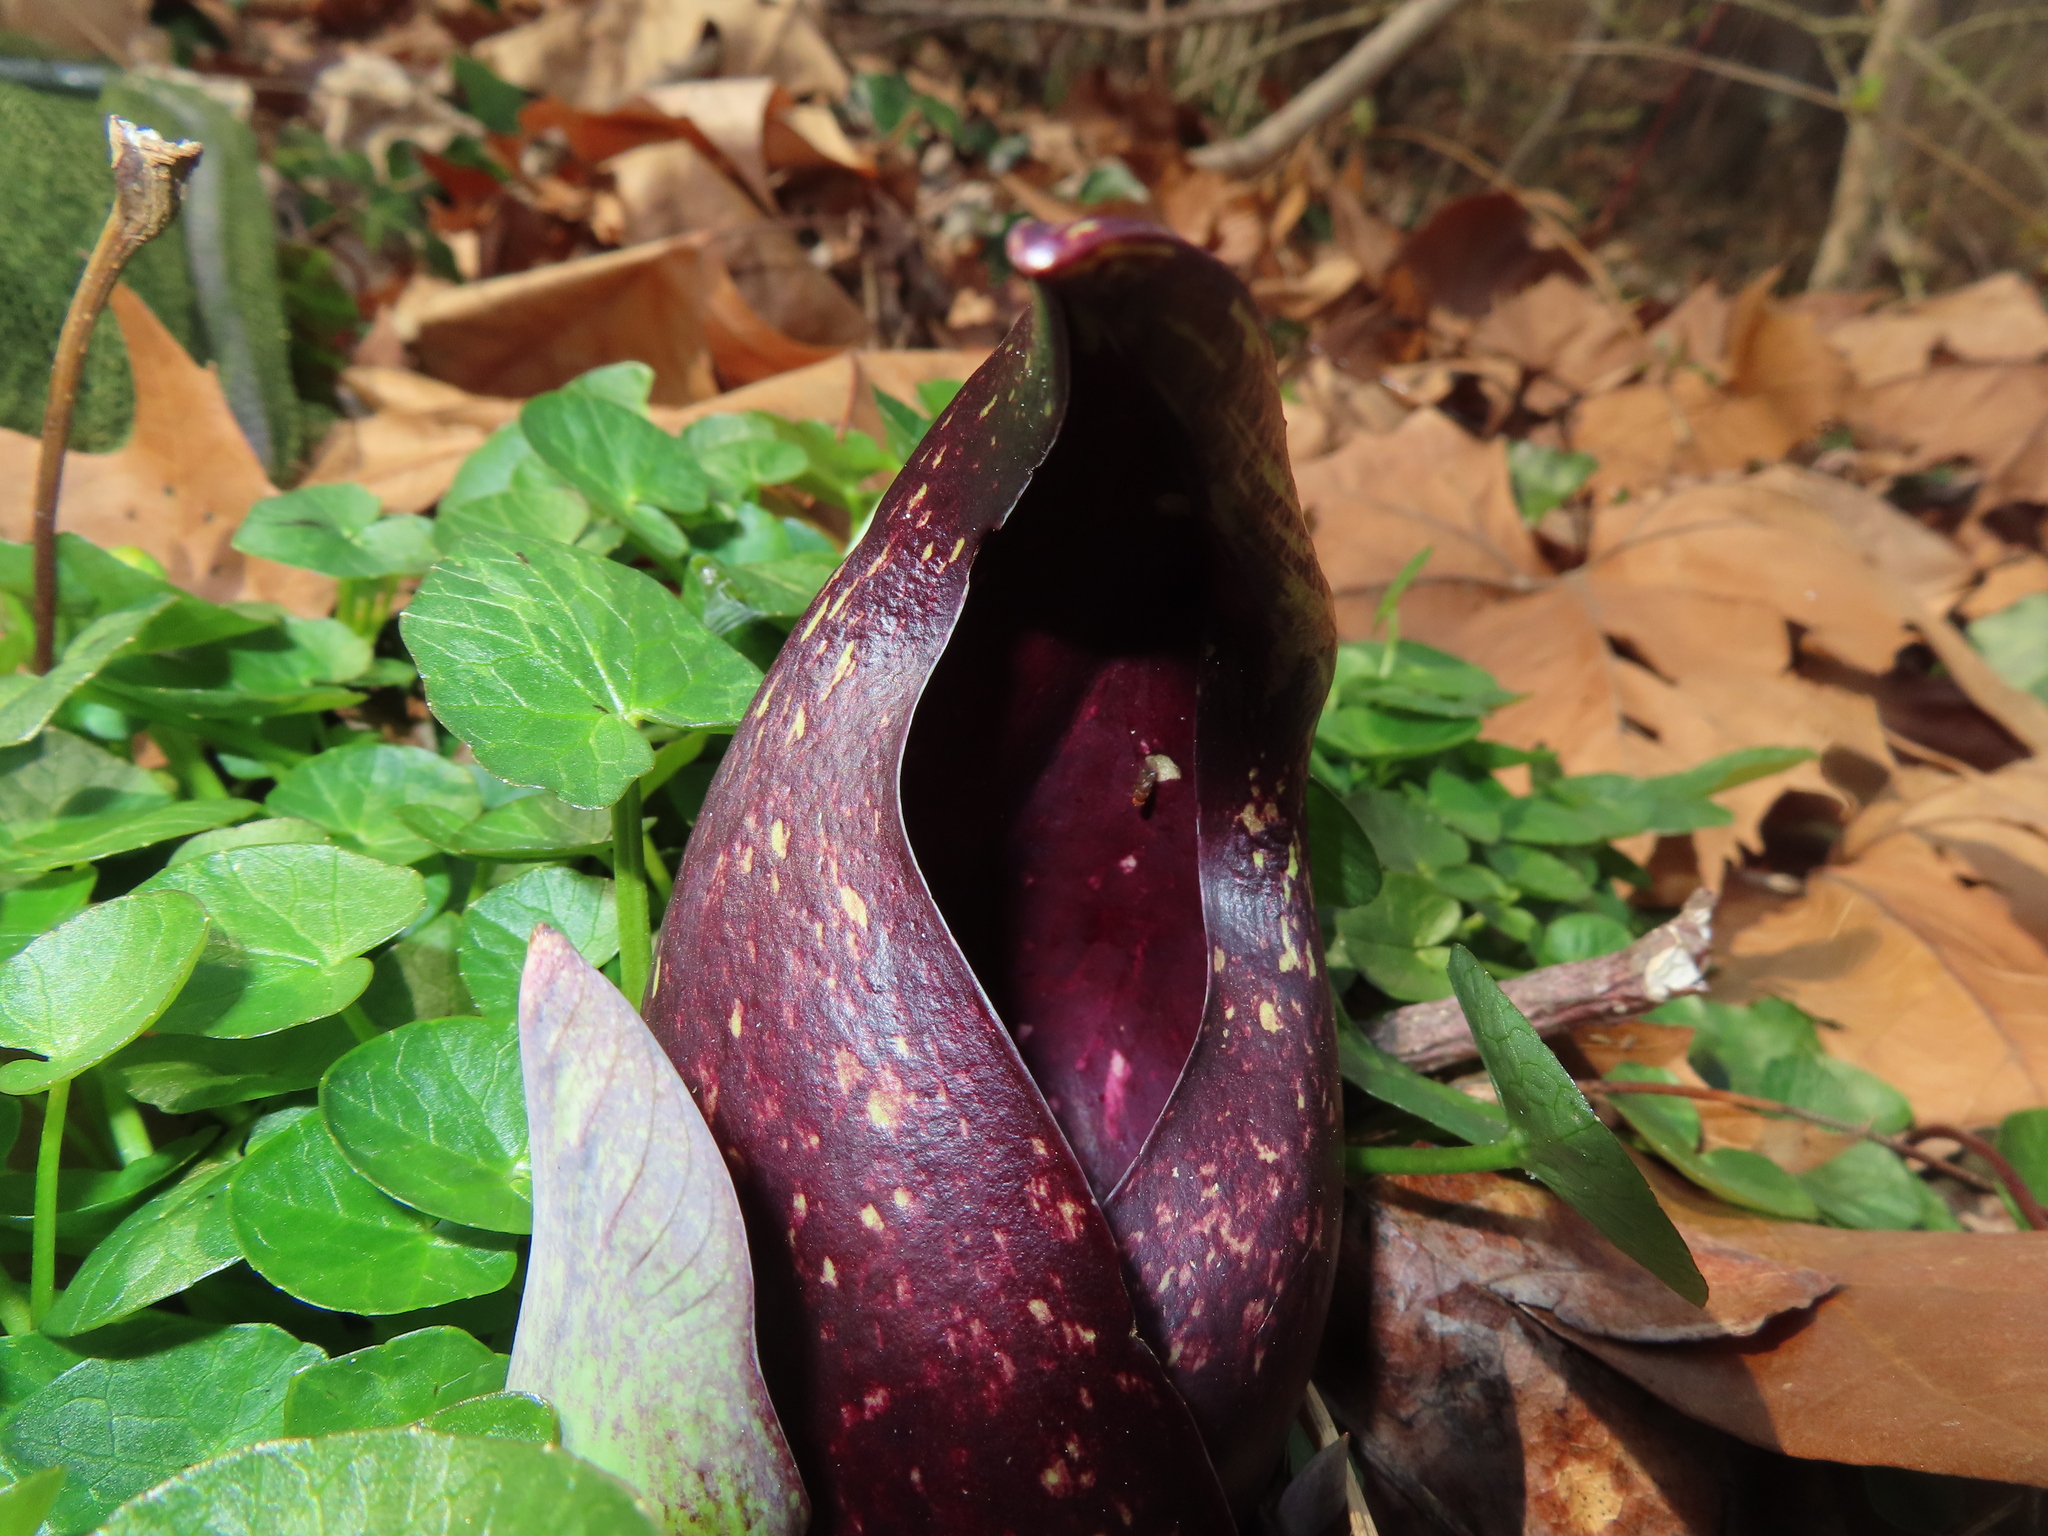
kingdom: Plantae
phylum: Tracheophyta
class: Liliopsida
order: Alismatales
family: Araceae
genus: Symplocarpus
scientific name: Symplocarpus foetidus
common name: Eastern skunk cabbage
